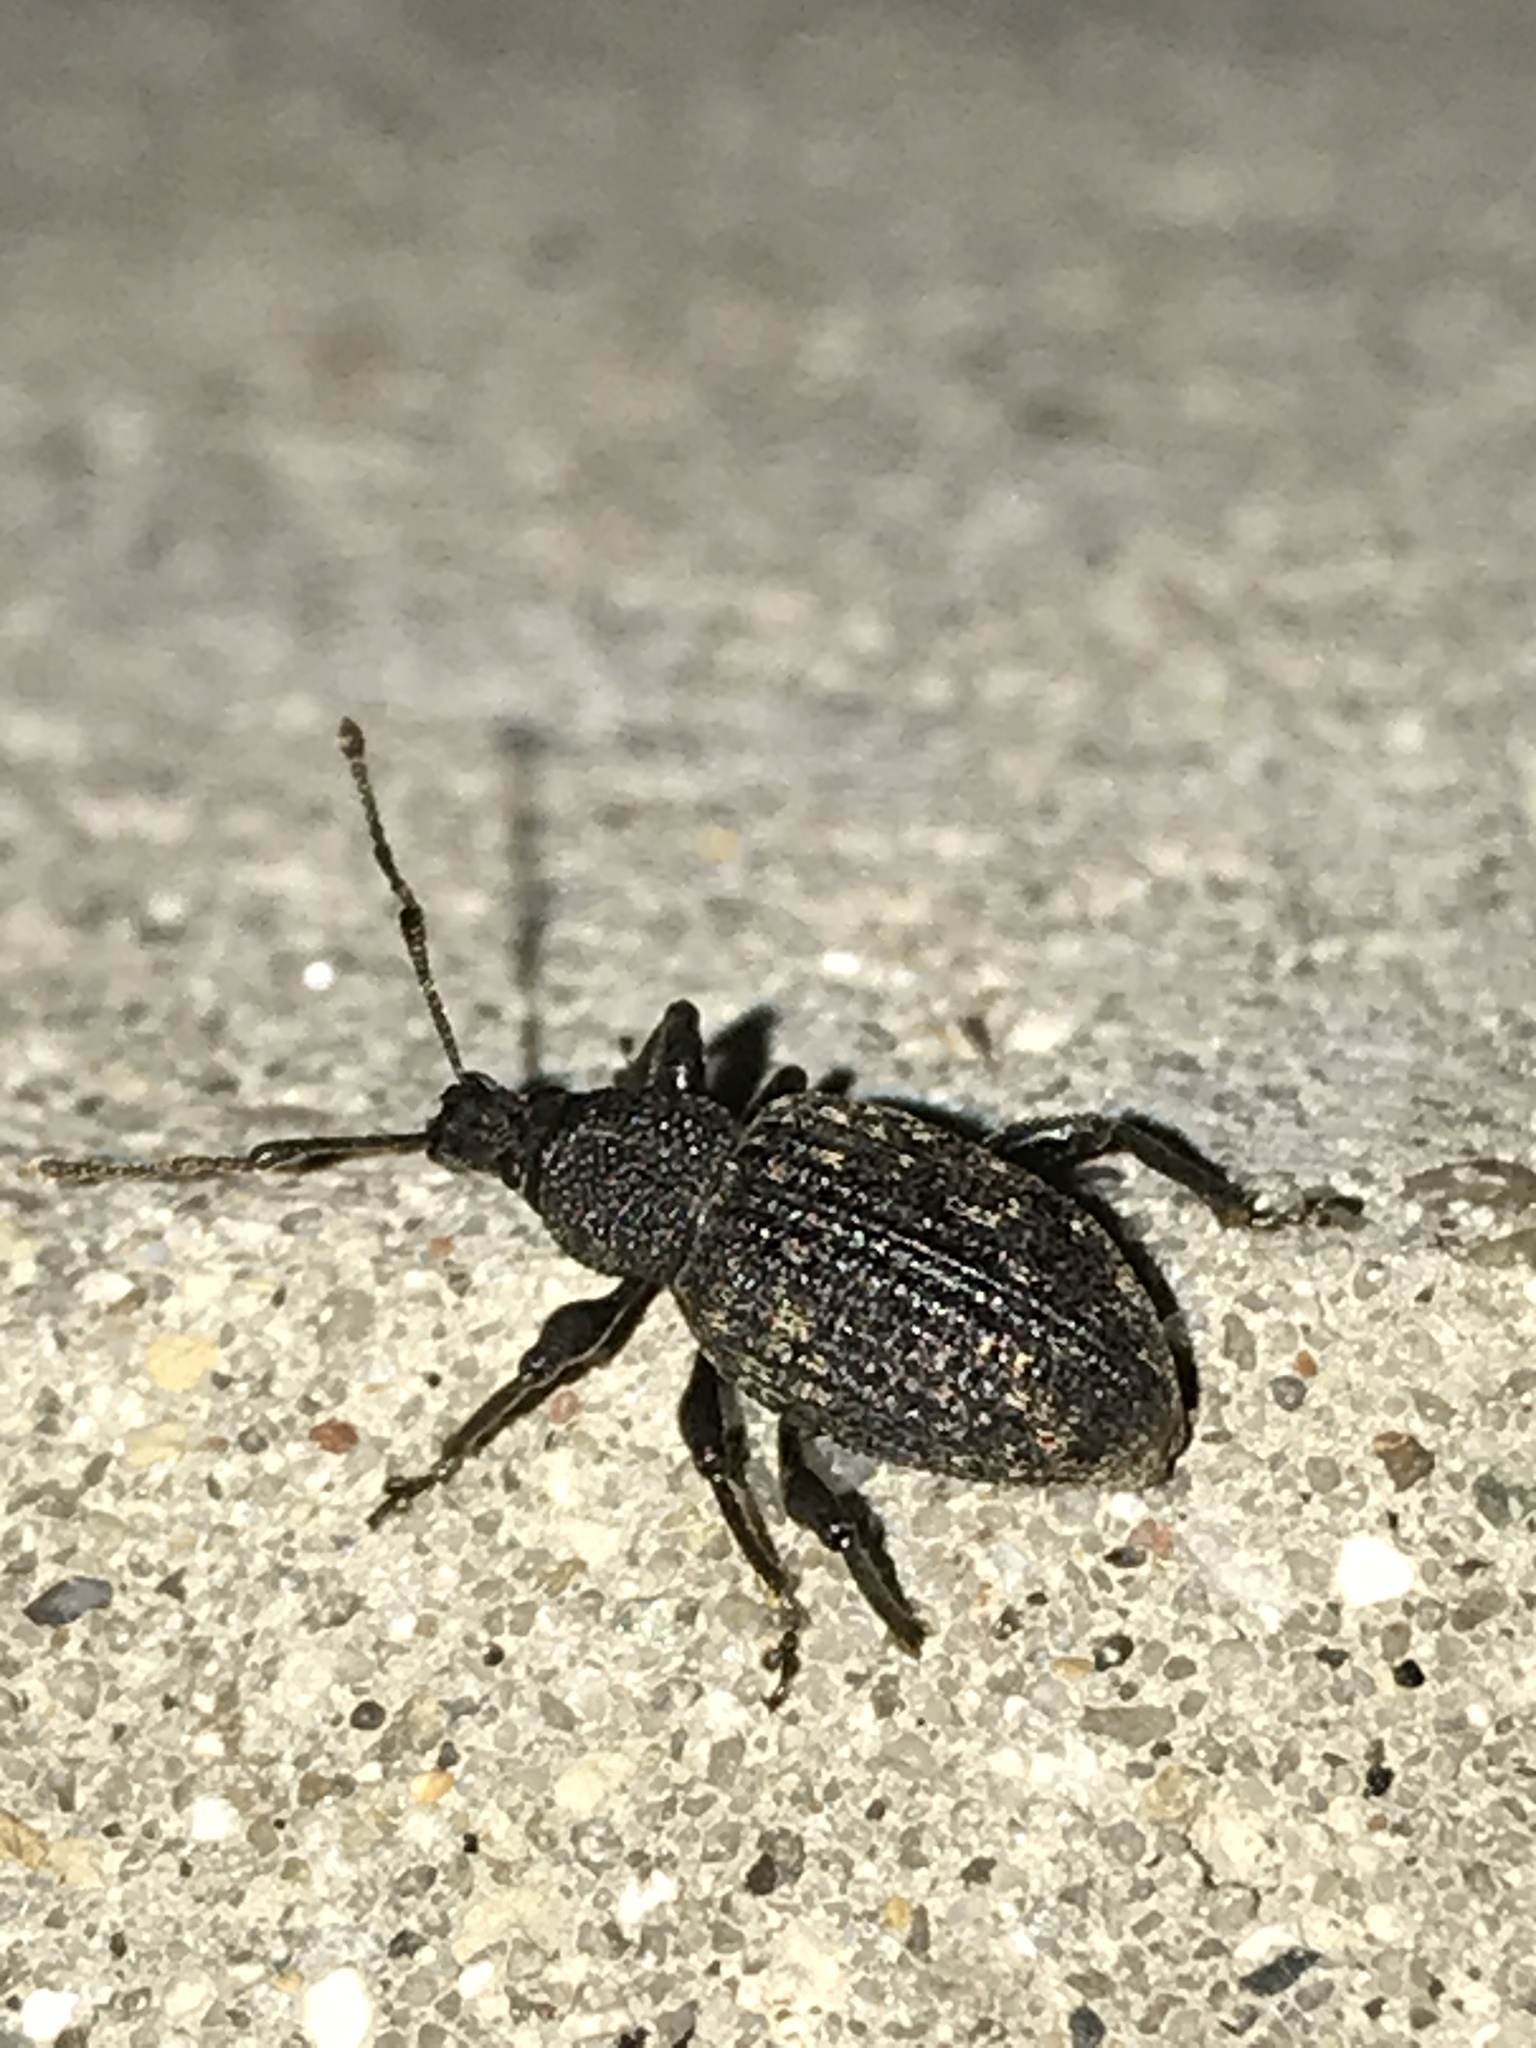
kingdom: Animalia
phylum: Arthropoda
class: Insecta
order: Coleoptera
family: Curculionidae
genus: Otiorhynchus
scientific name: Otiorhynchus sulcatus
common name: Black vine weevil
